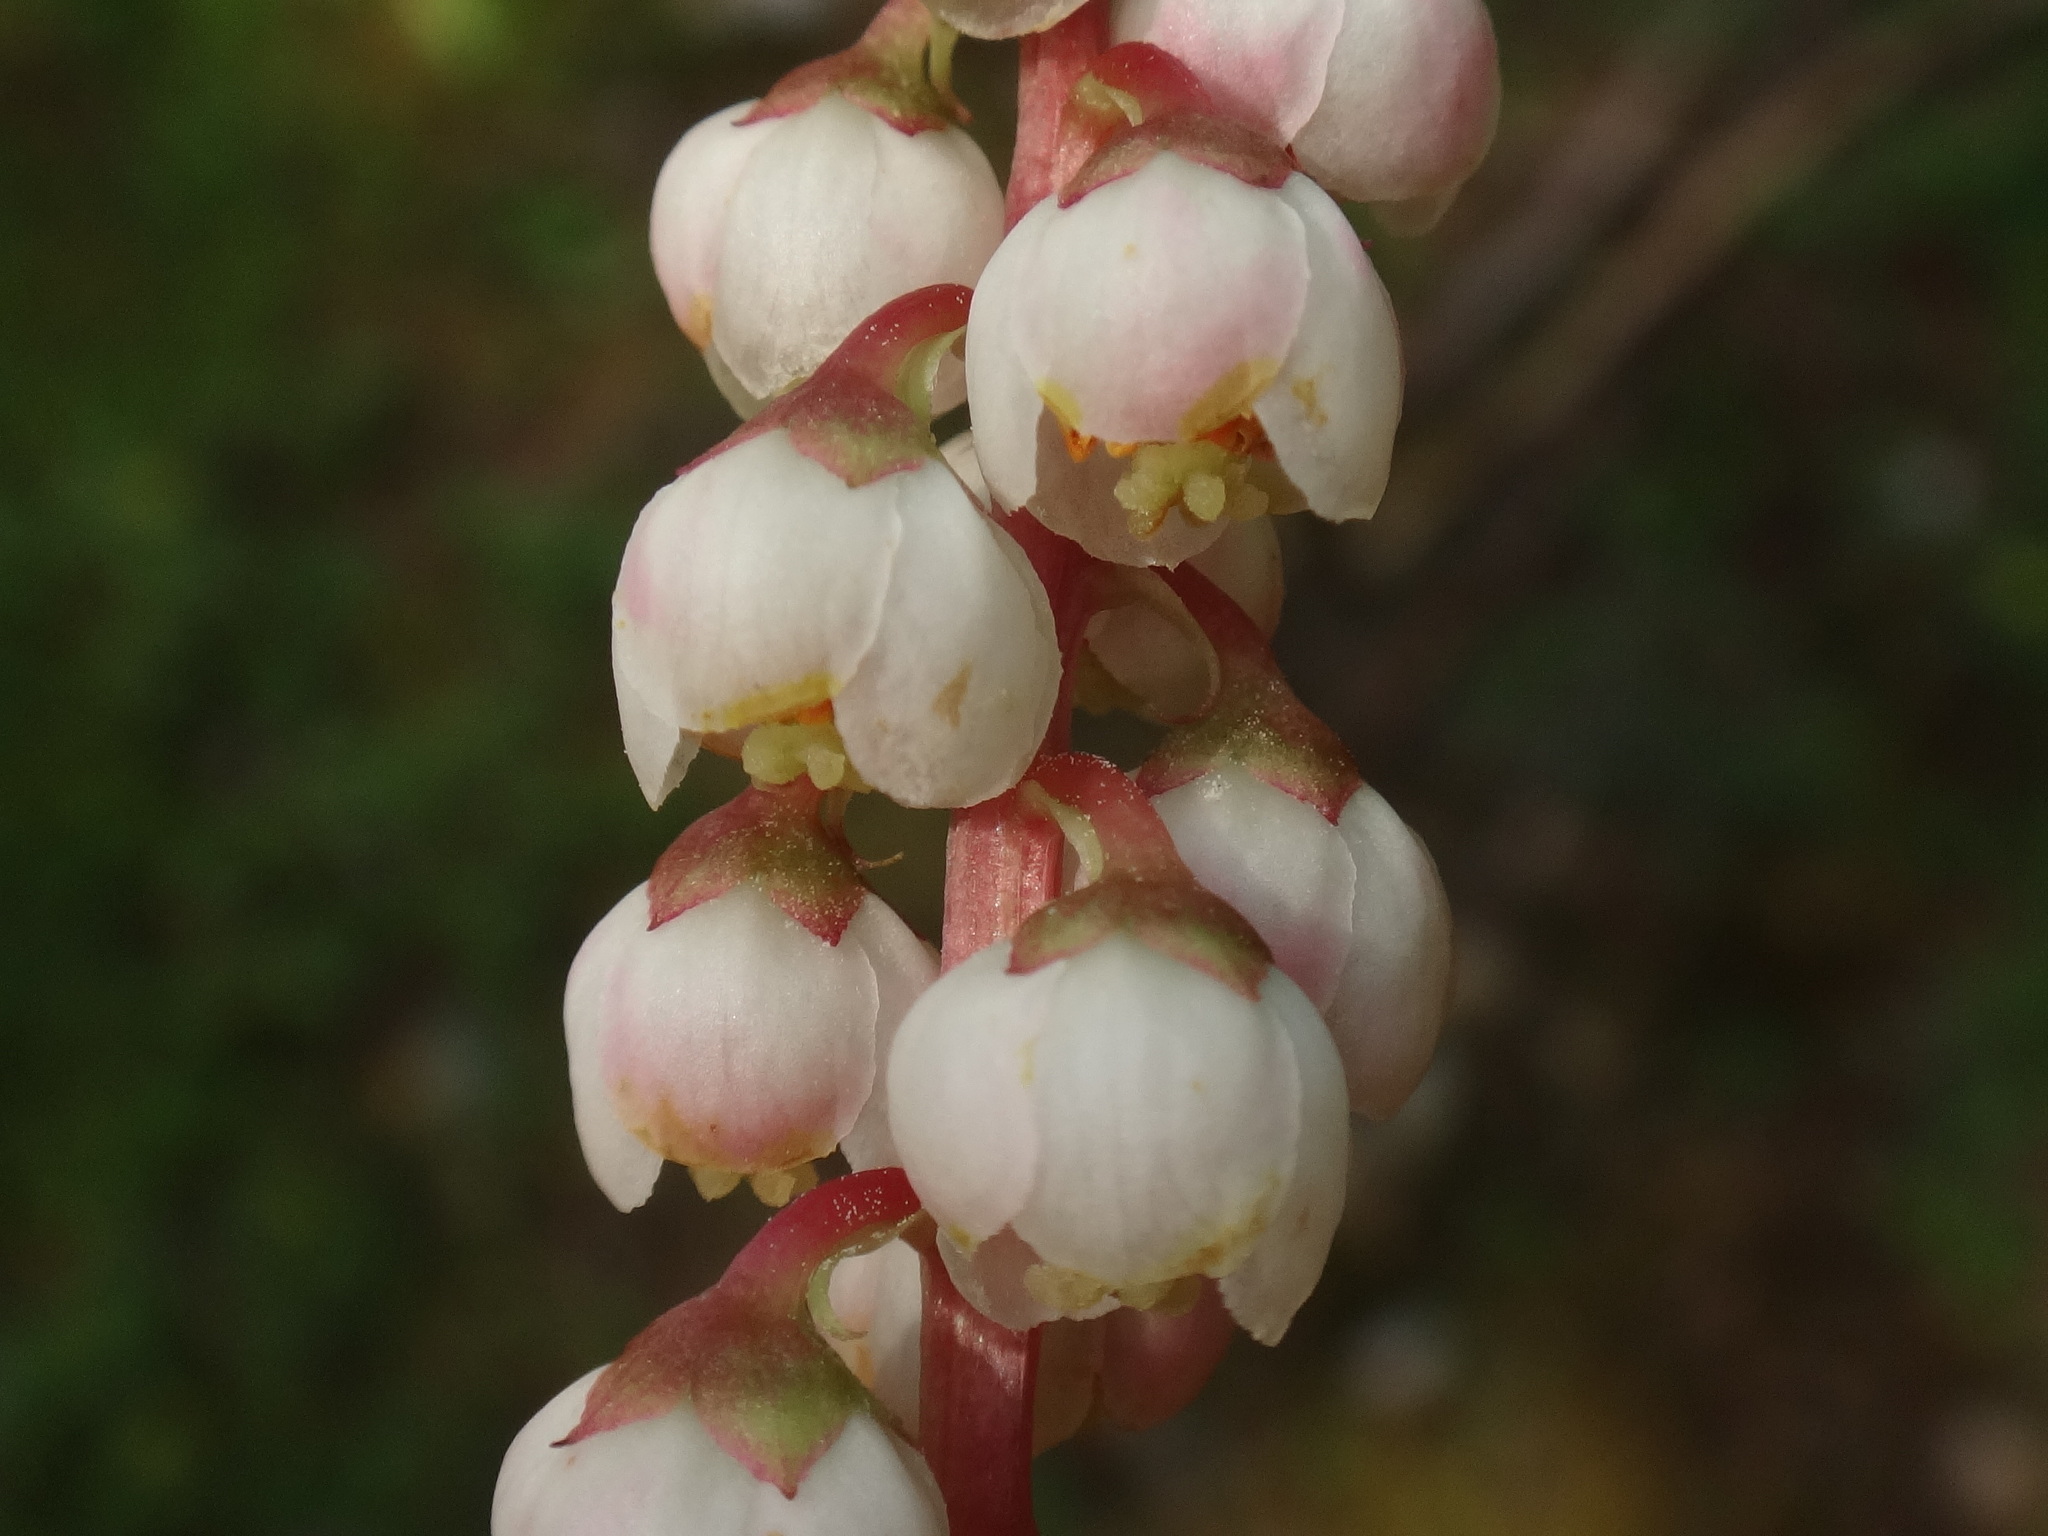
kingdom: Plantae
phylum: Tracheophyta
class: Magnoliopsida
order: Ericales
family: Ericaceae
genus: Pyrola
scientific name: Pyrola minor
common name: Common wintergreen
